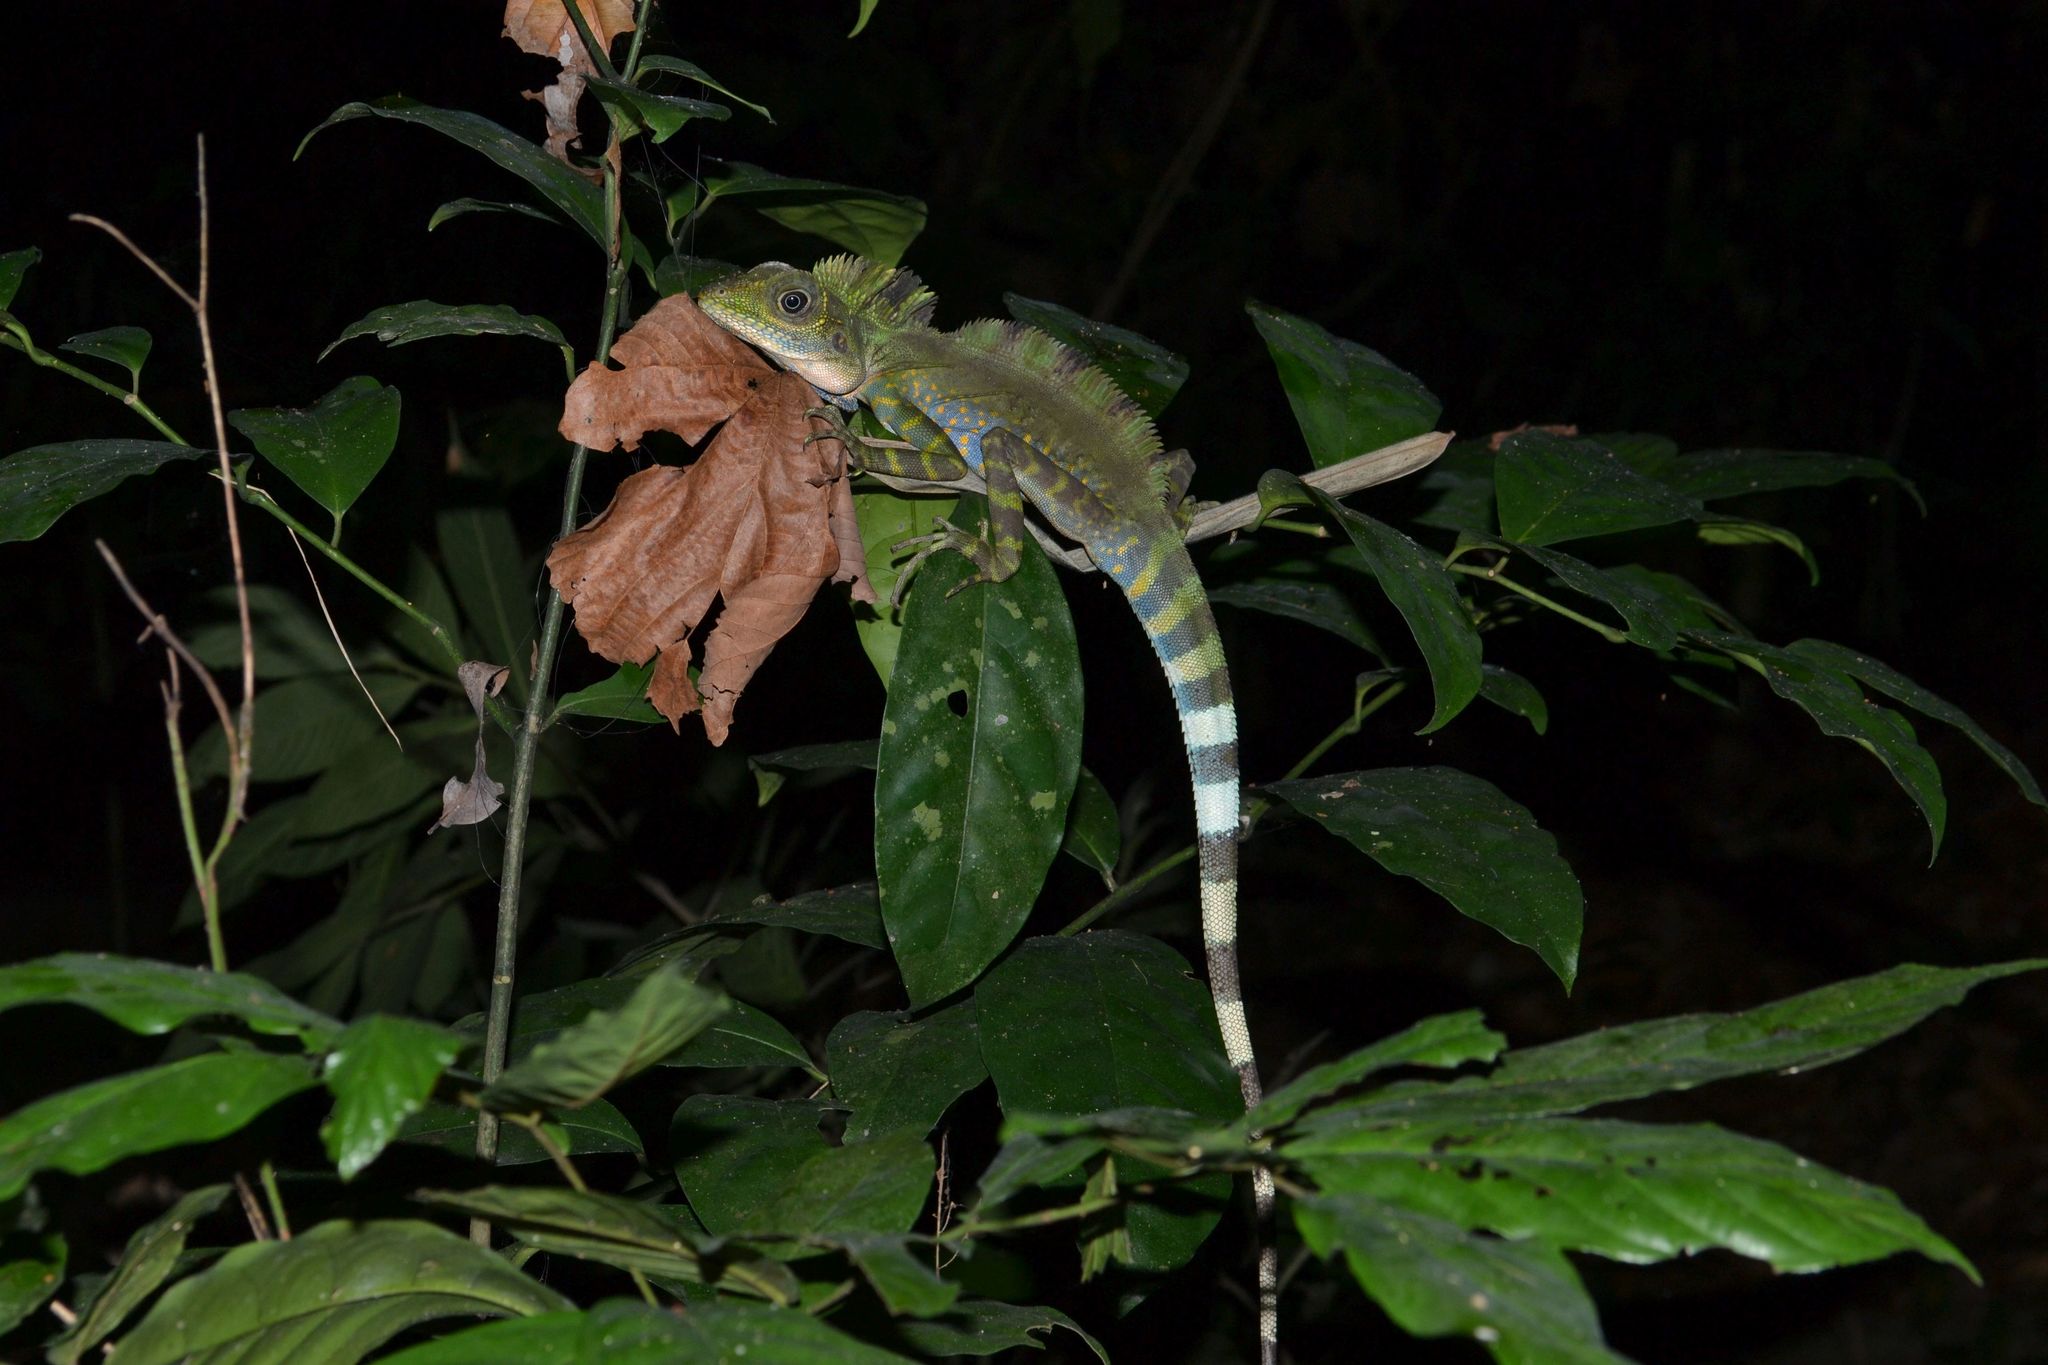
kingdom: Animalia
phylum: Chordata
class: Squamata
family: Agamidae
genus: Gonocephalus
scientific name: Gonocephalus grandis
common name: Giant forest dragon
